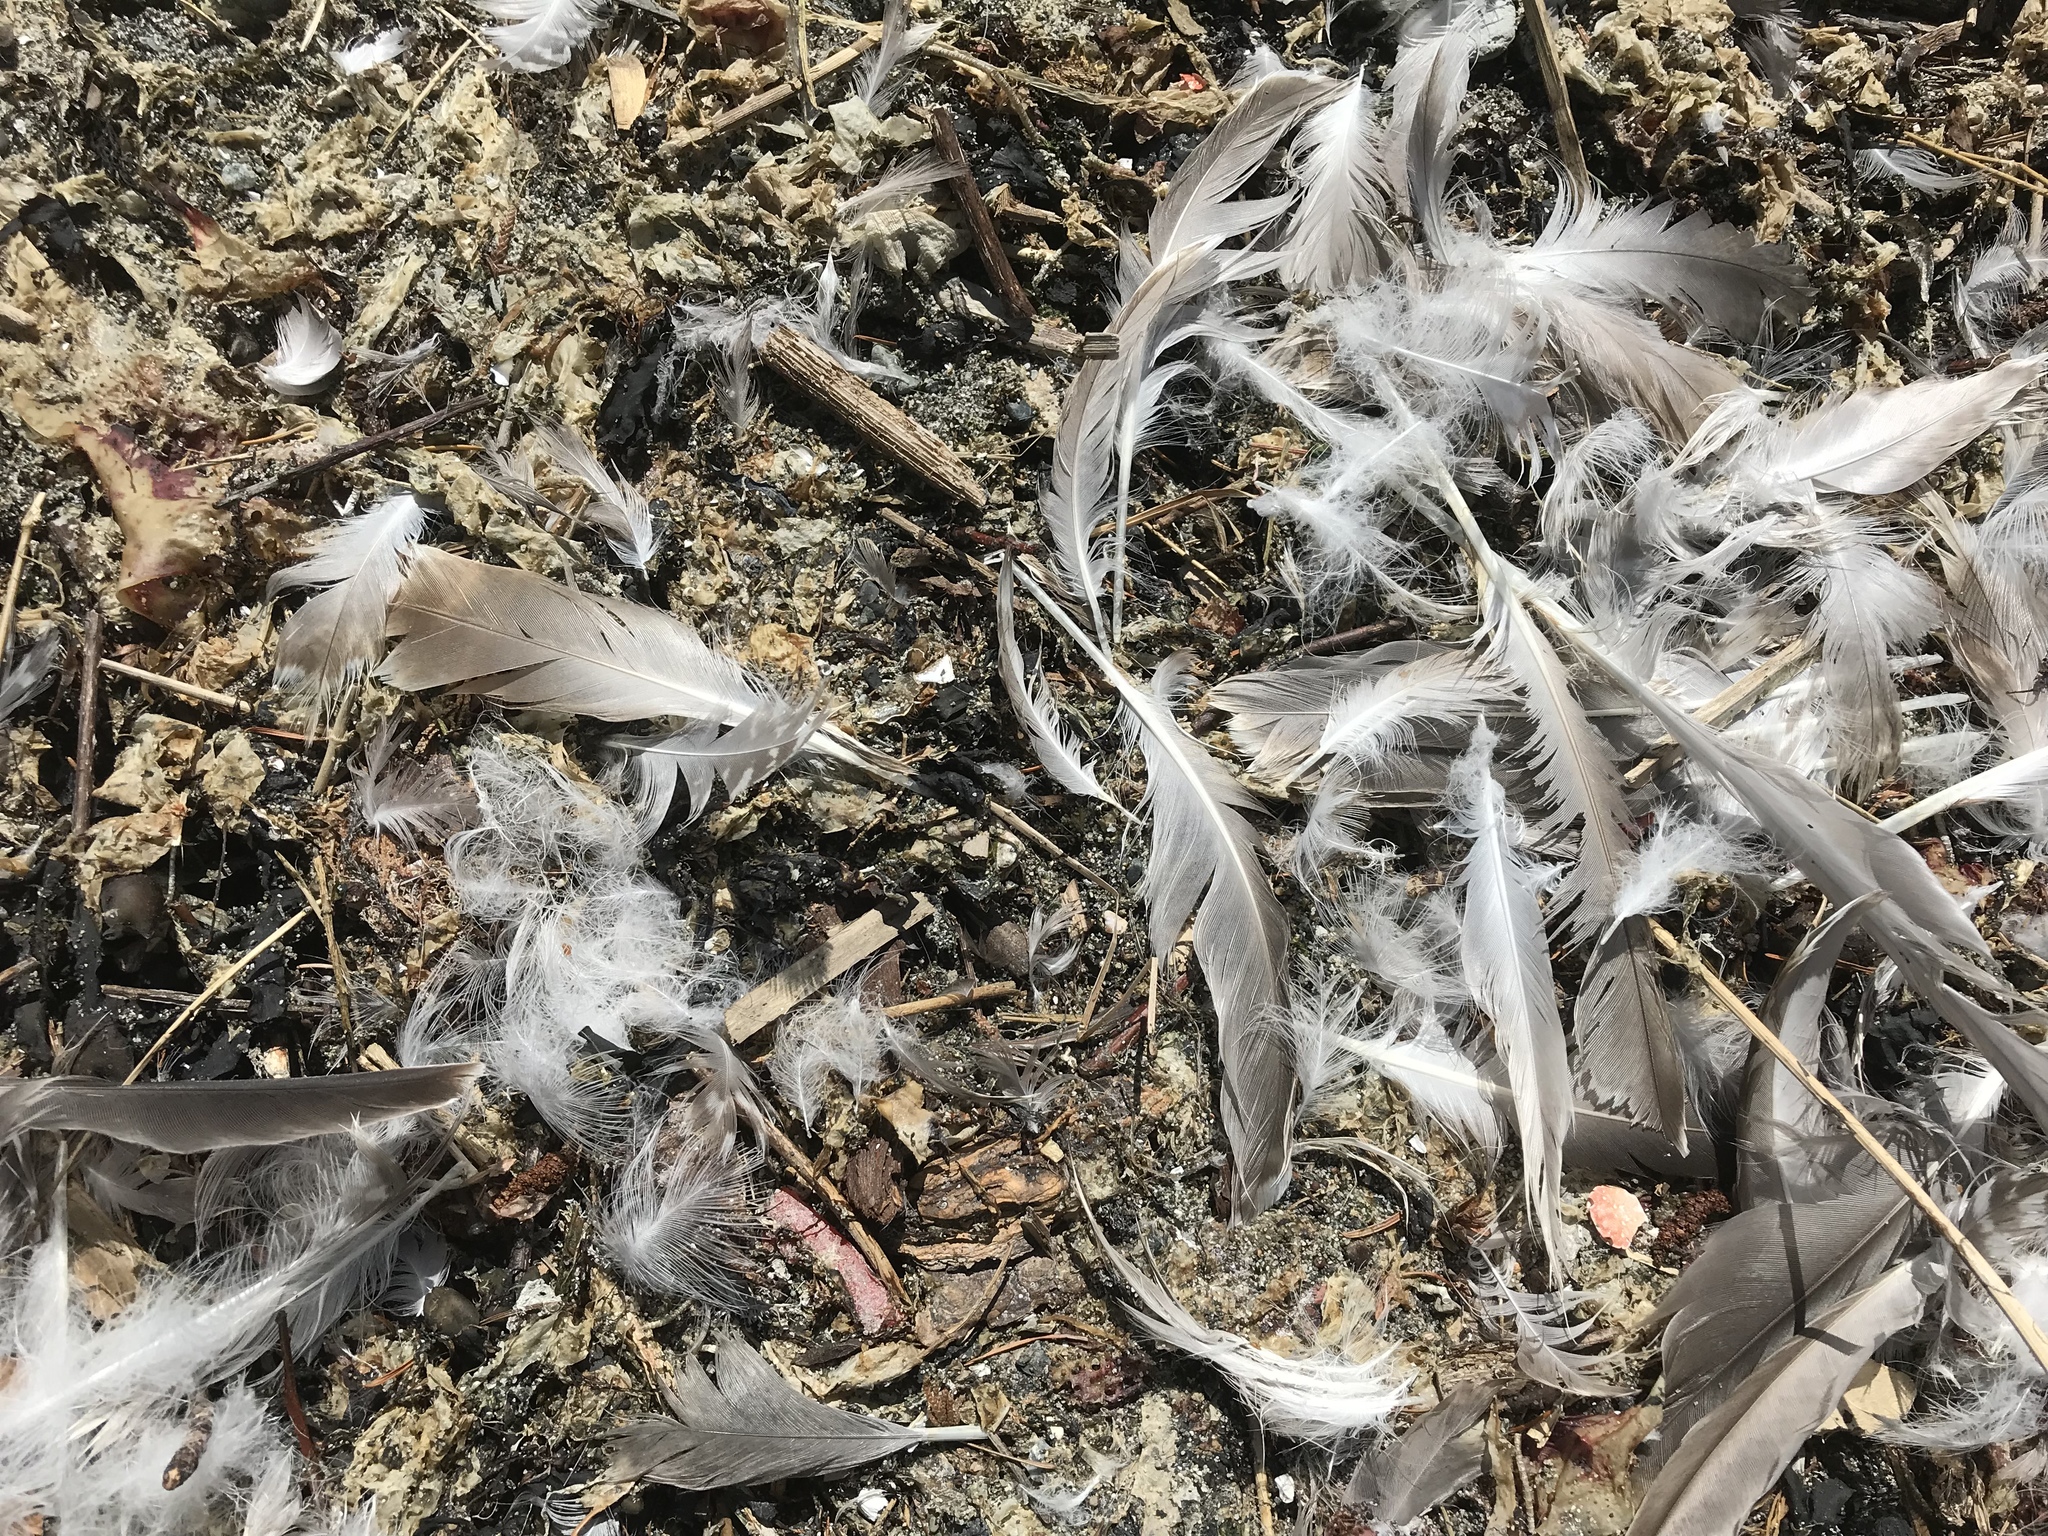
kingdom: Animalia
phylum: Chordata
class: Aves
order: Charadriiformes
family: Laridae
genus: Larus
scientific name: Larus glaucescens
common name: Glaucous-winged gull
